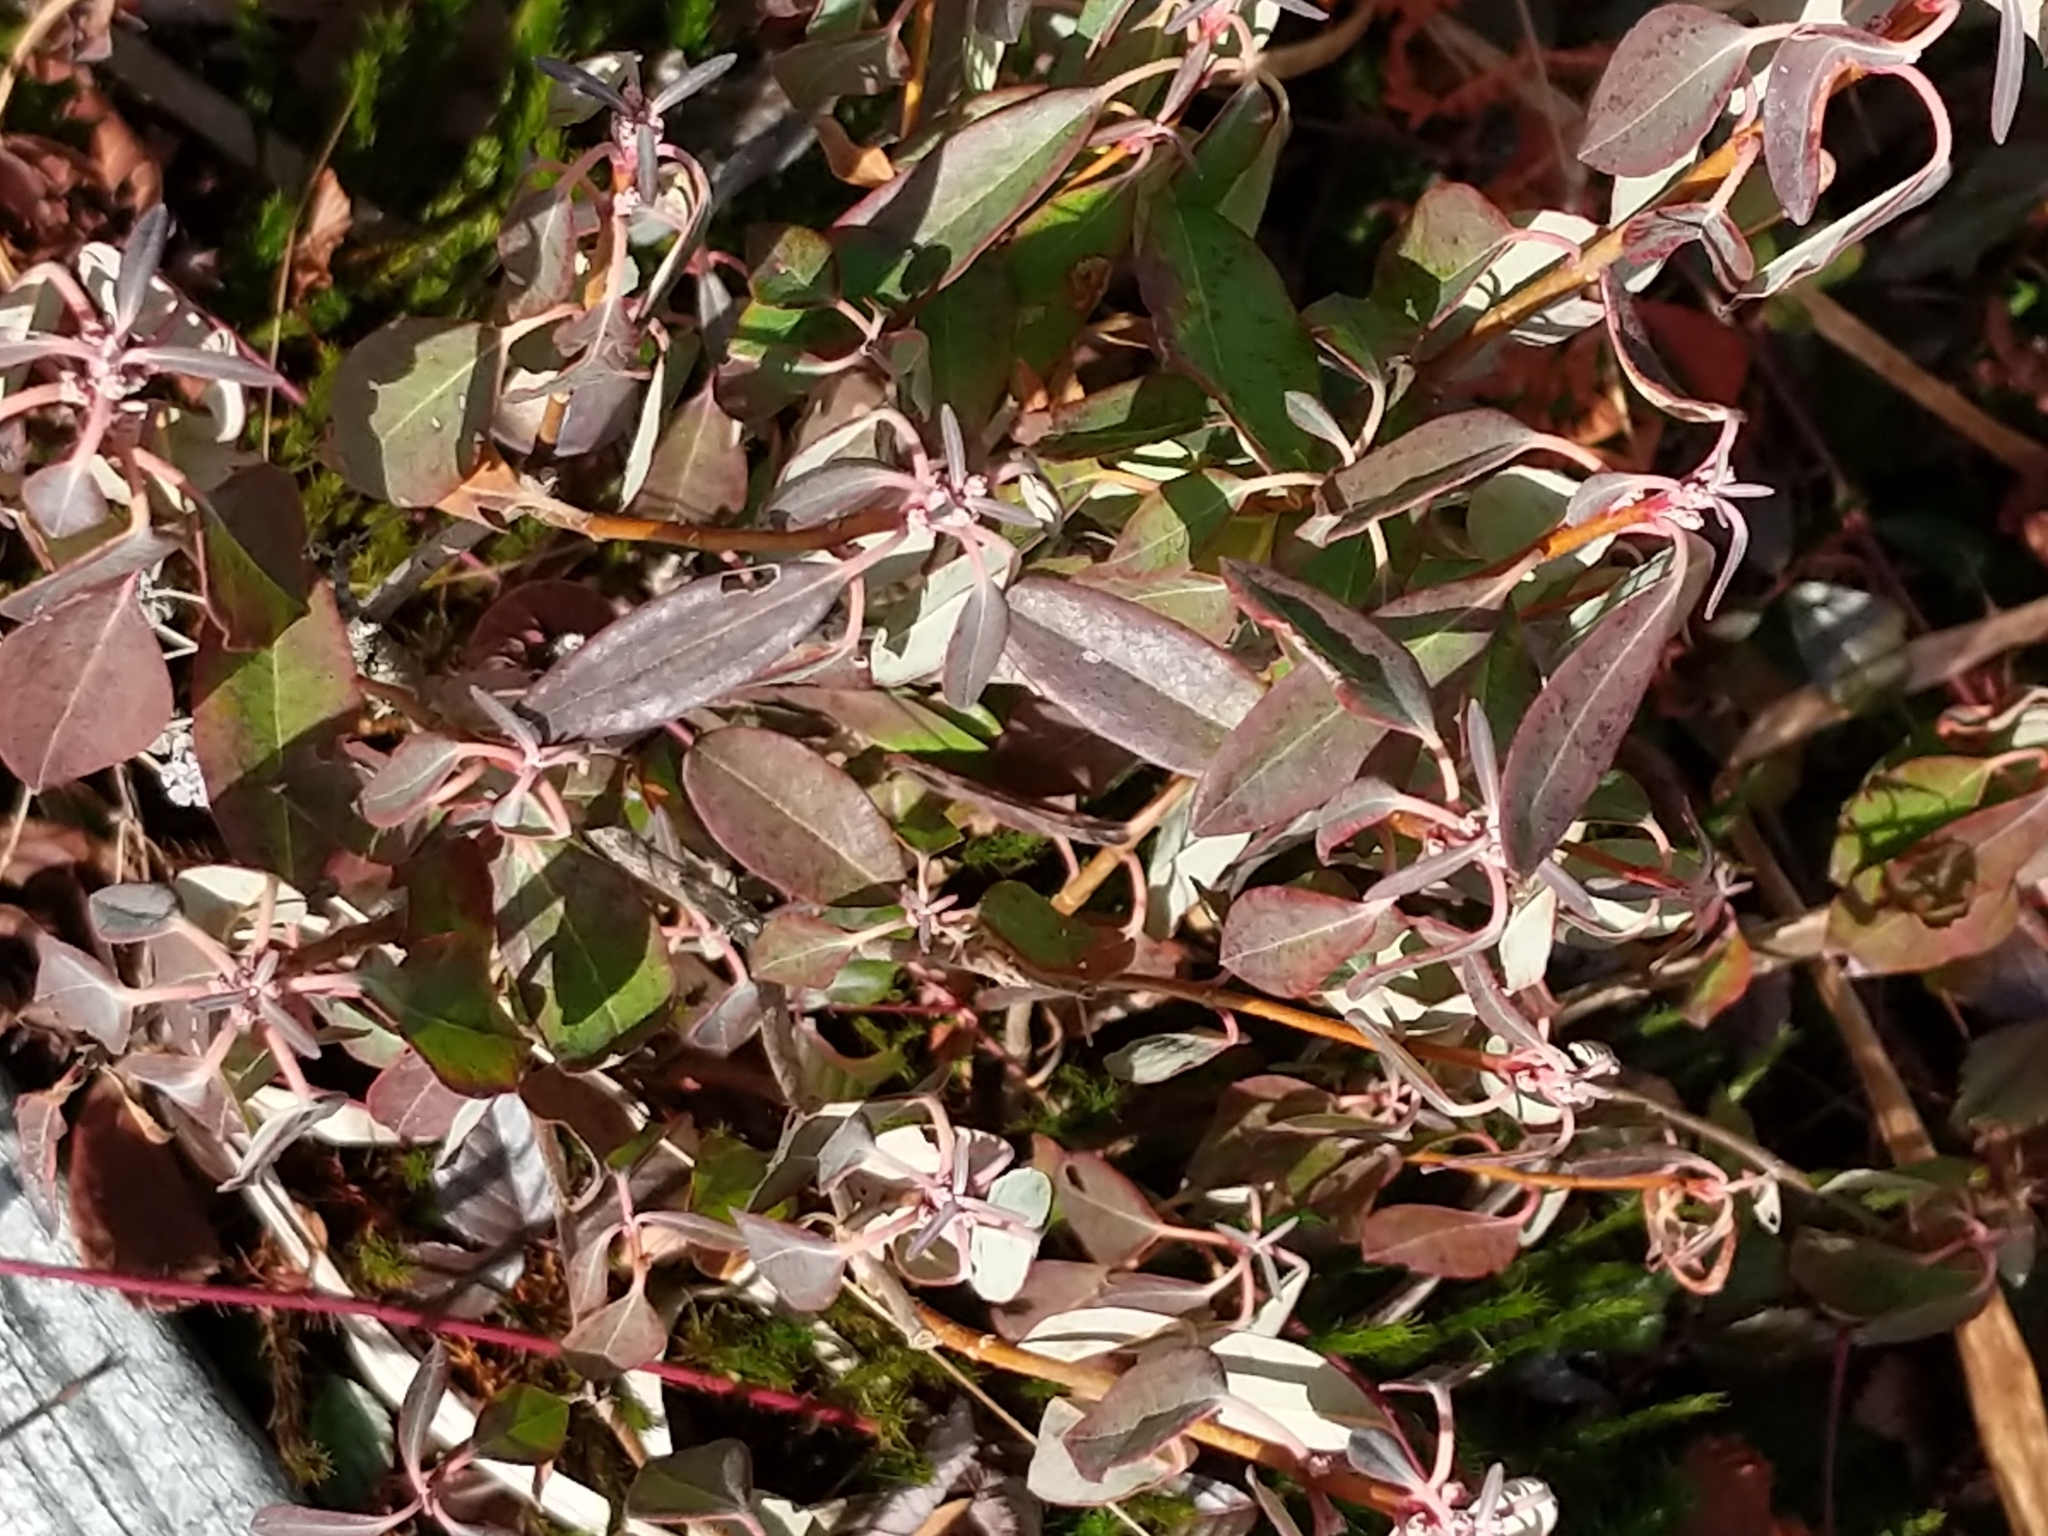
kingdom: Plantae
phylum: Tracheophyta
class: Magnoliopsida
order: Ericales
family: Ericaceae
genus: Kalmia
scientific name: Kalmia angustifolia
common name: Sheep-laurel
